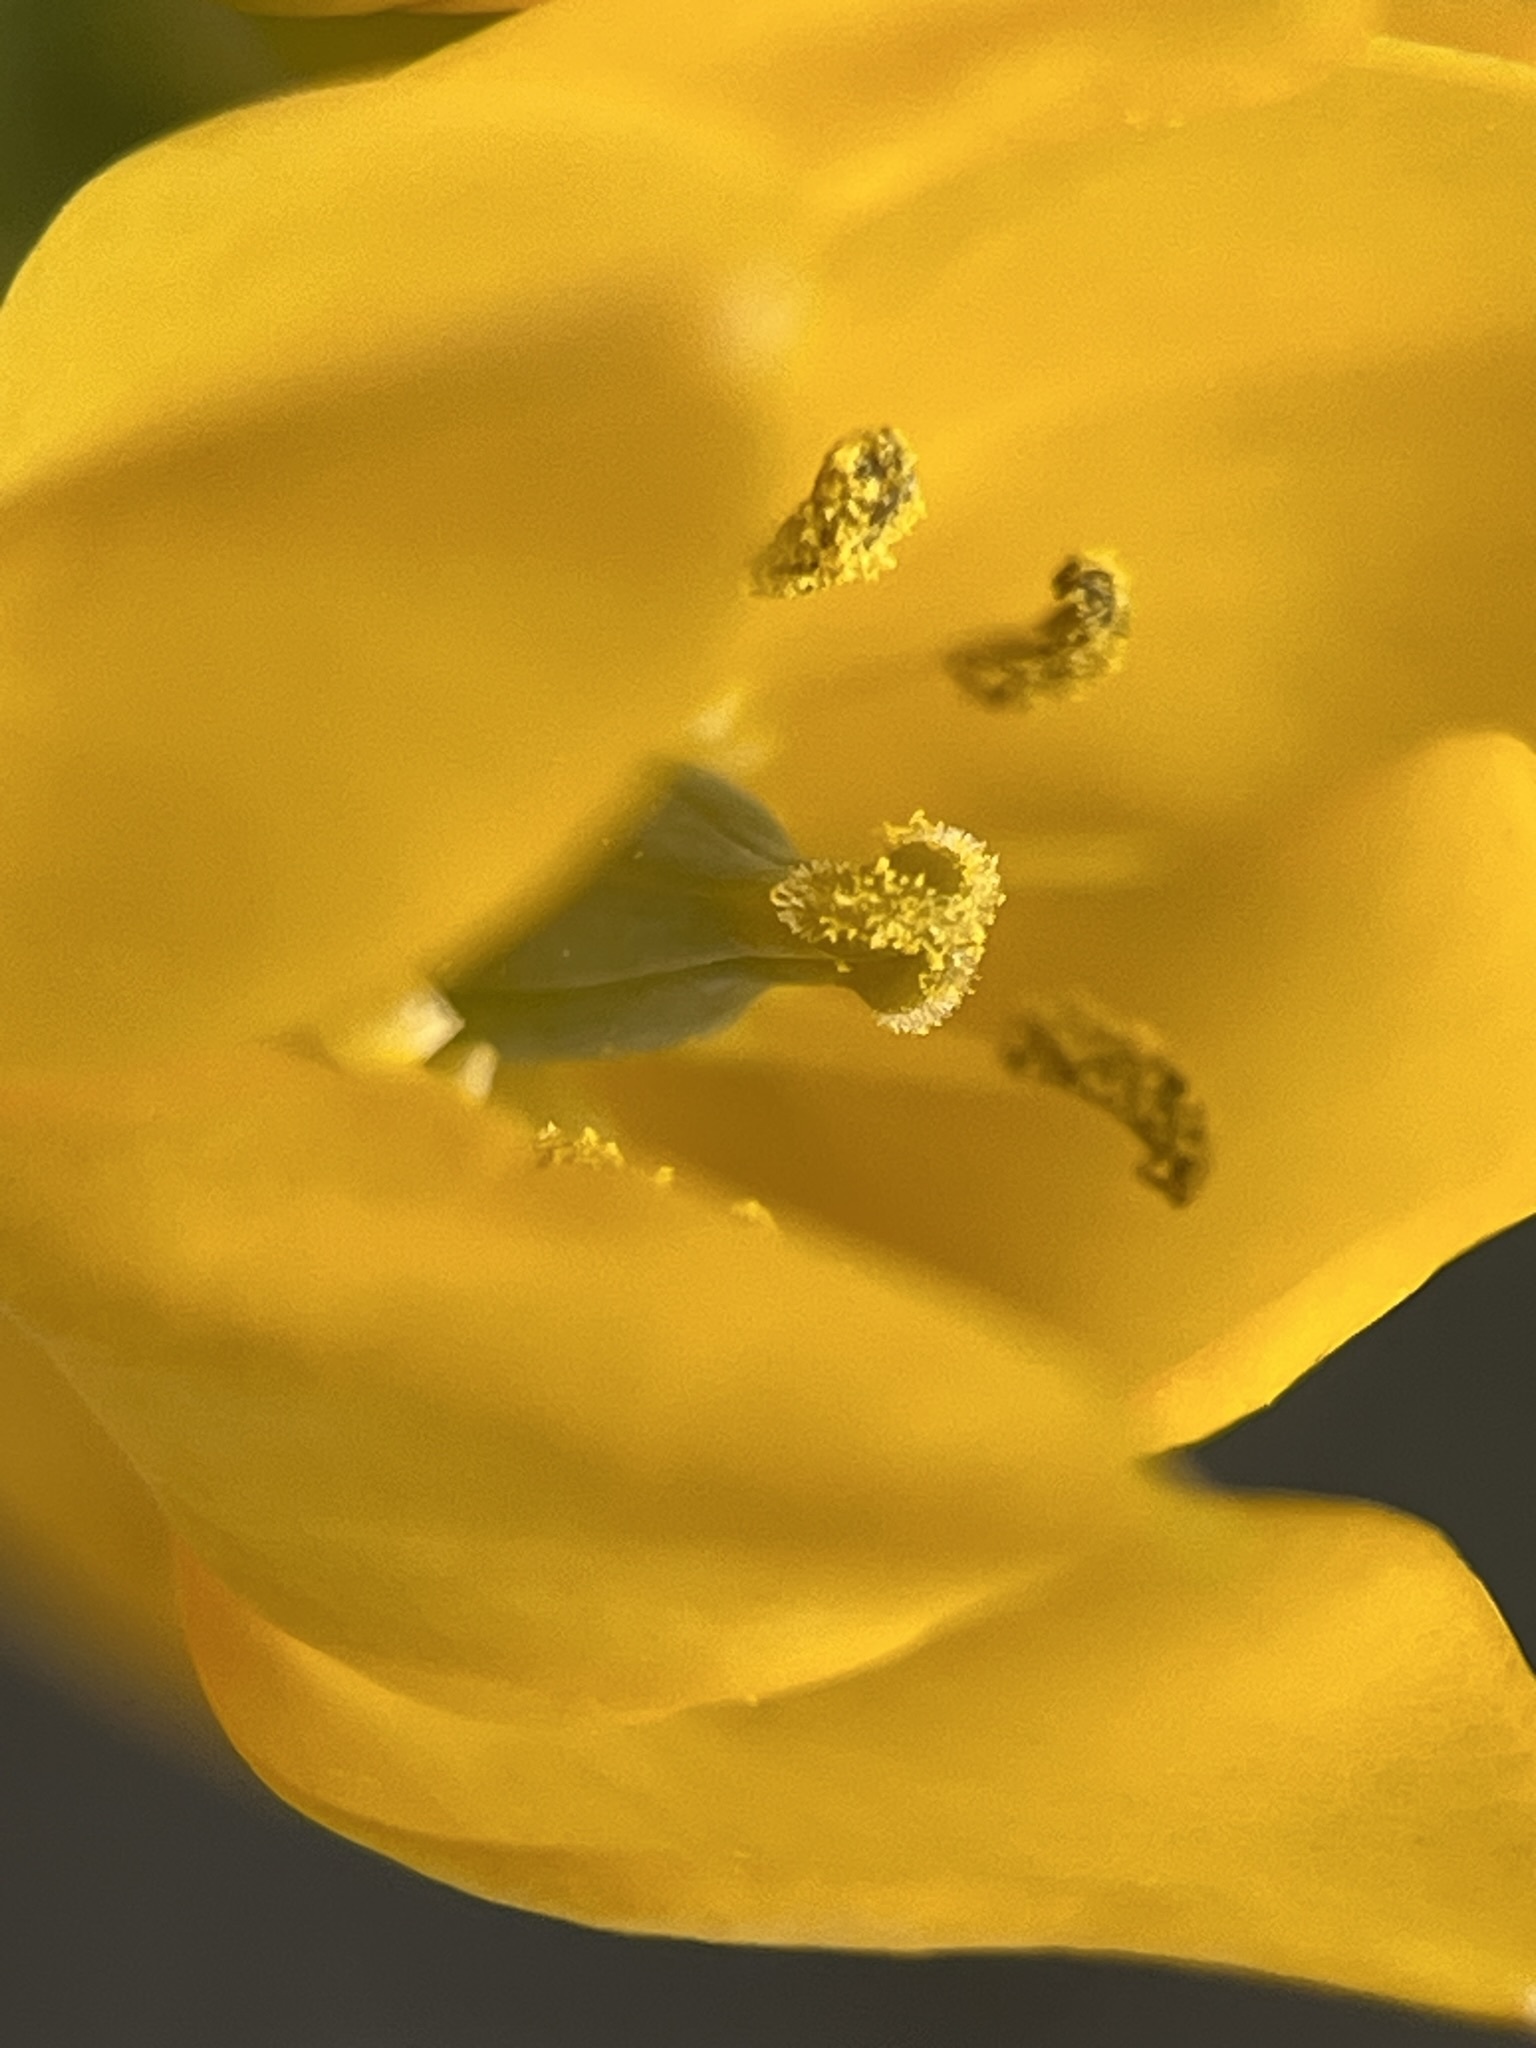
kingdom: Plantae
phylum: Tracheophyta
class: Liliopsida
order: Asparagales
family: Asparagaceae
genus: Ornithogalum
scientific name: Ornithogalum dubium
